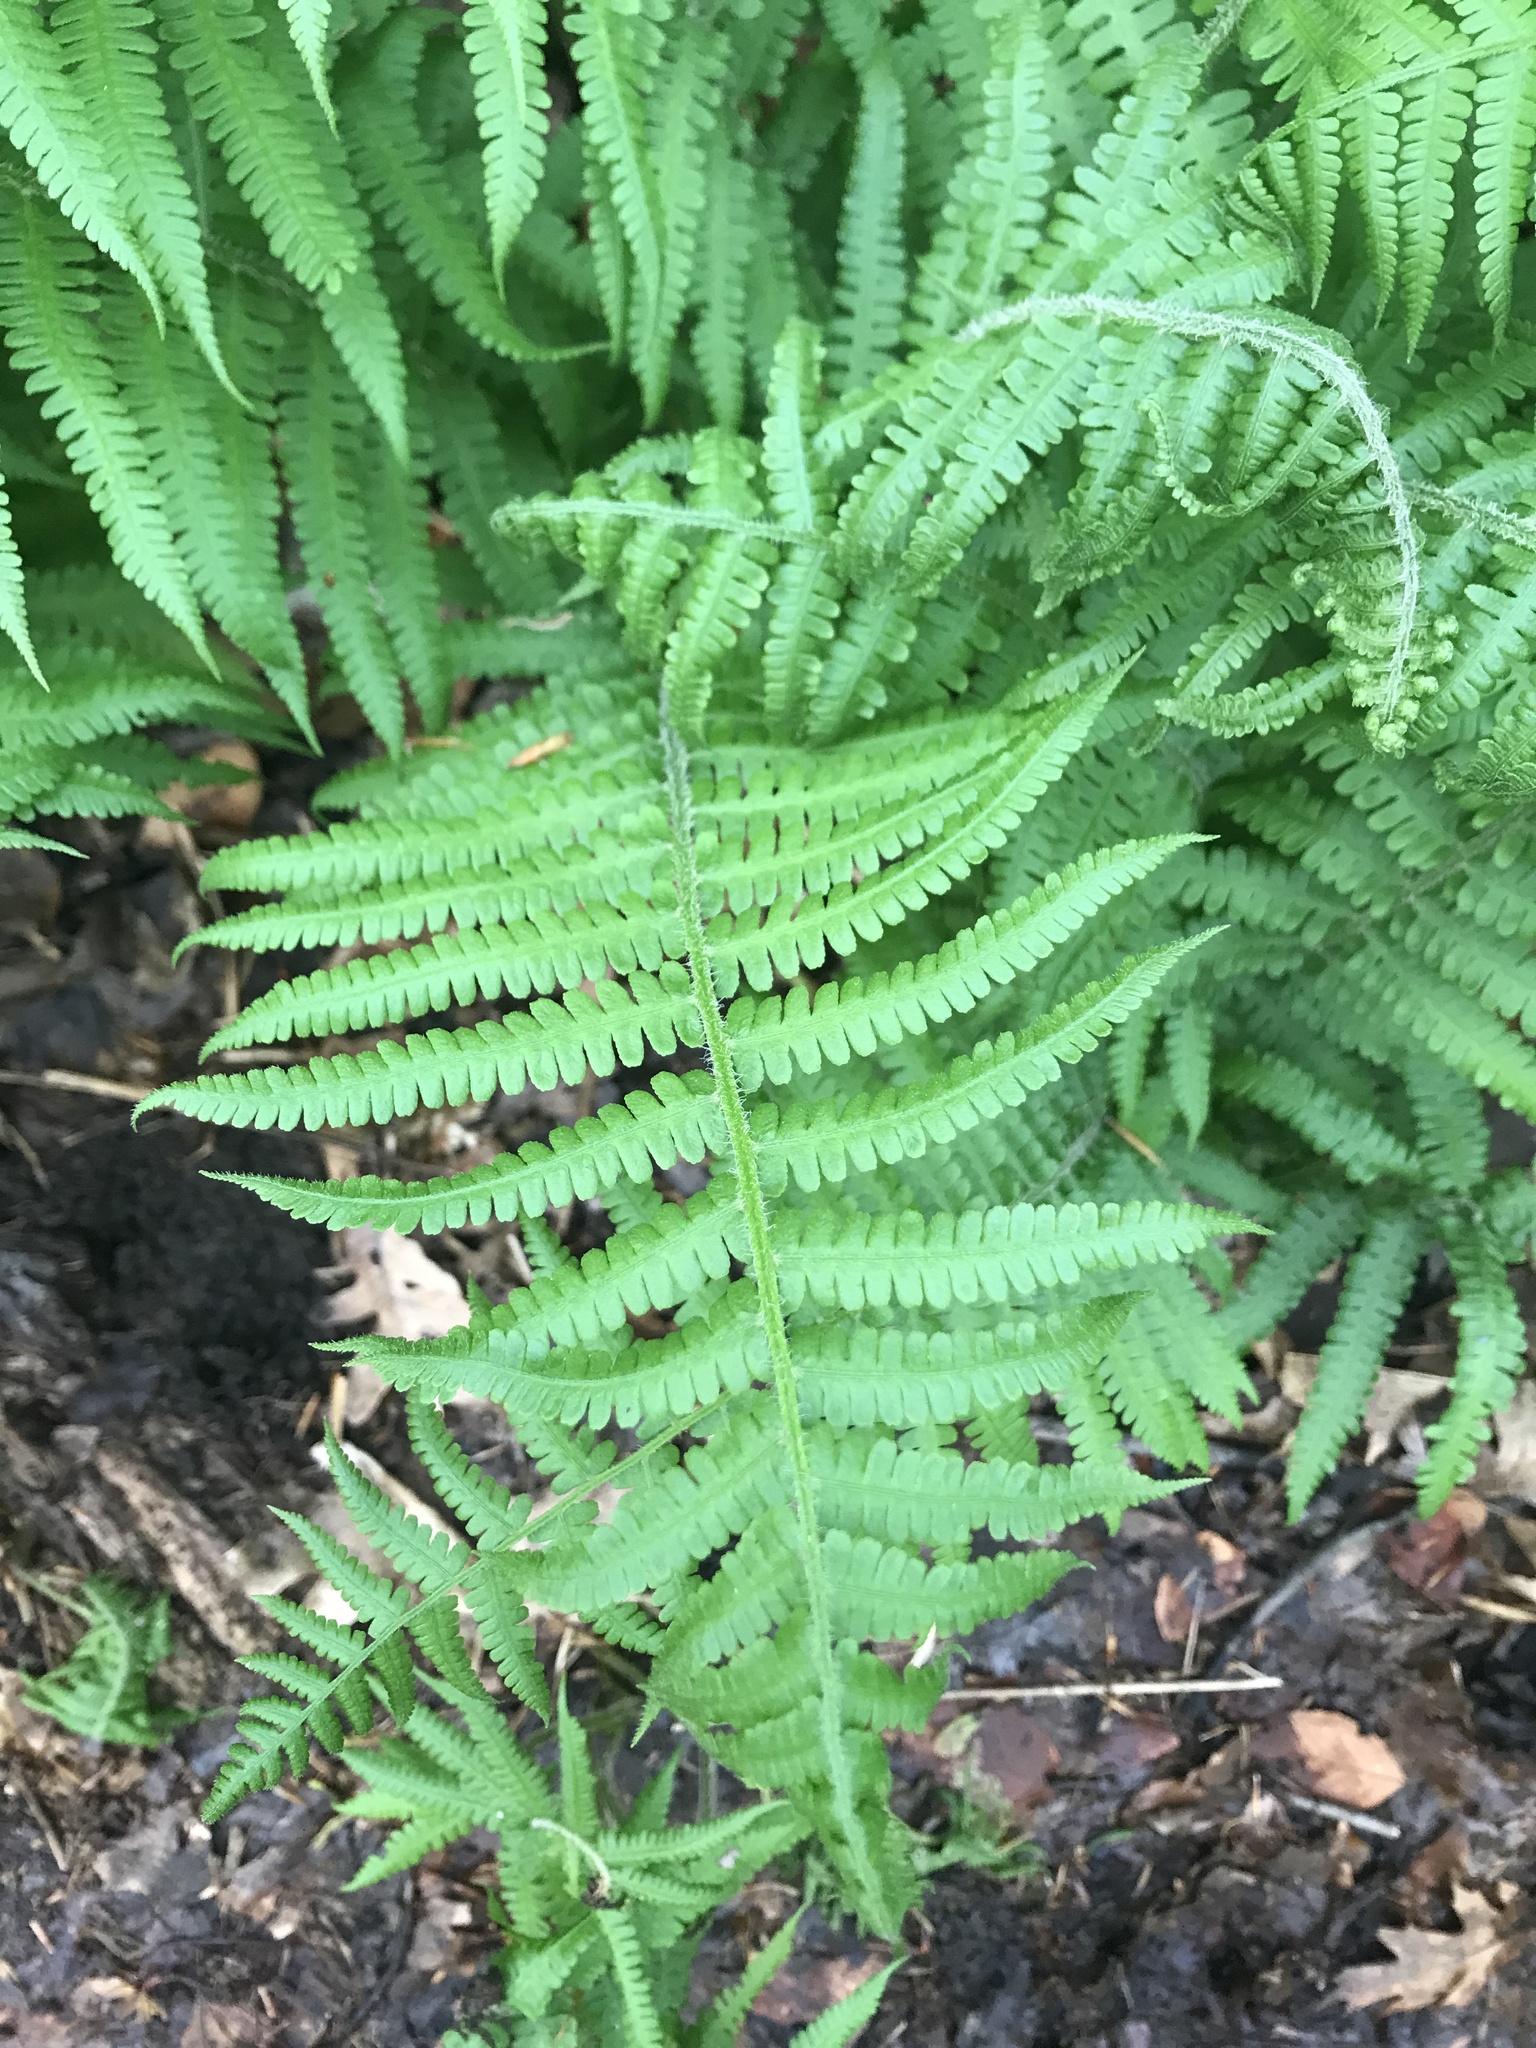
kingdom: Plantae
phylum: Tracheophyta
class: Polypodiopsida
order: Polypodiales
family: Athyriaceae
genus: Deparia
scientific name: Deparia acrostichoides
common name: Silver false spleenwort
